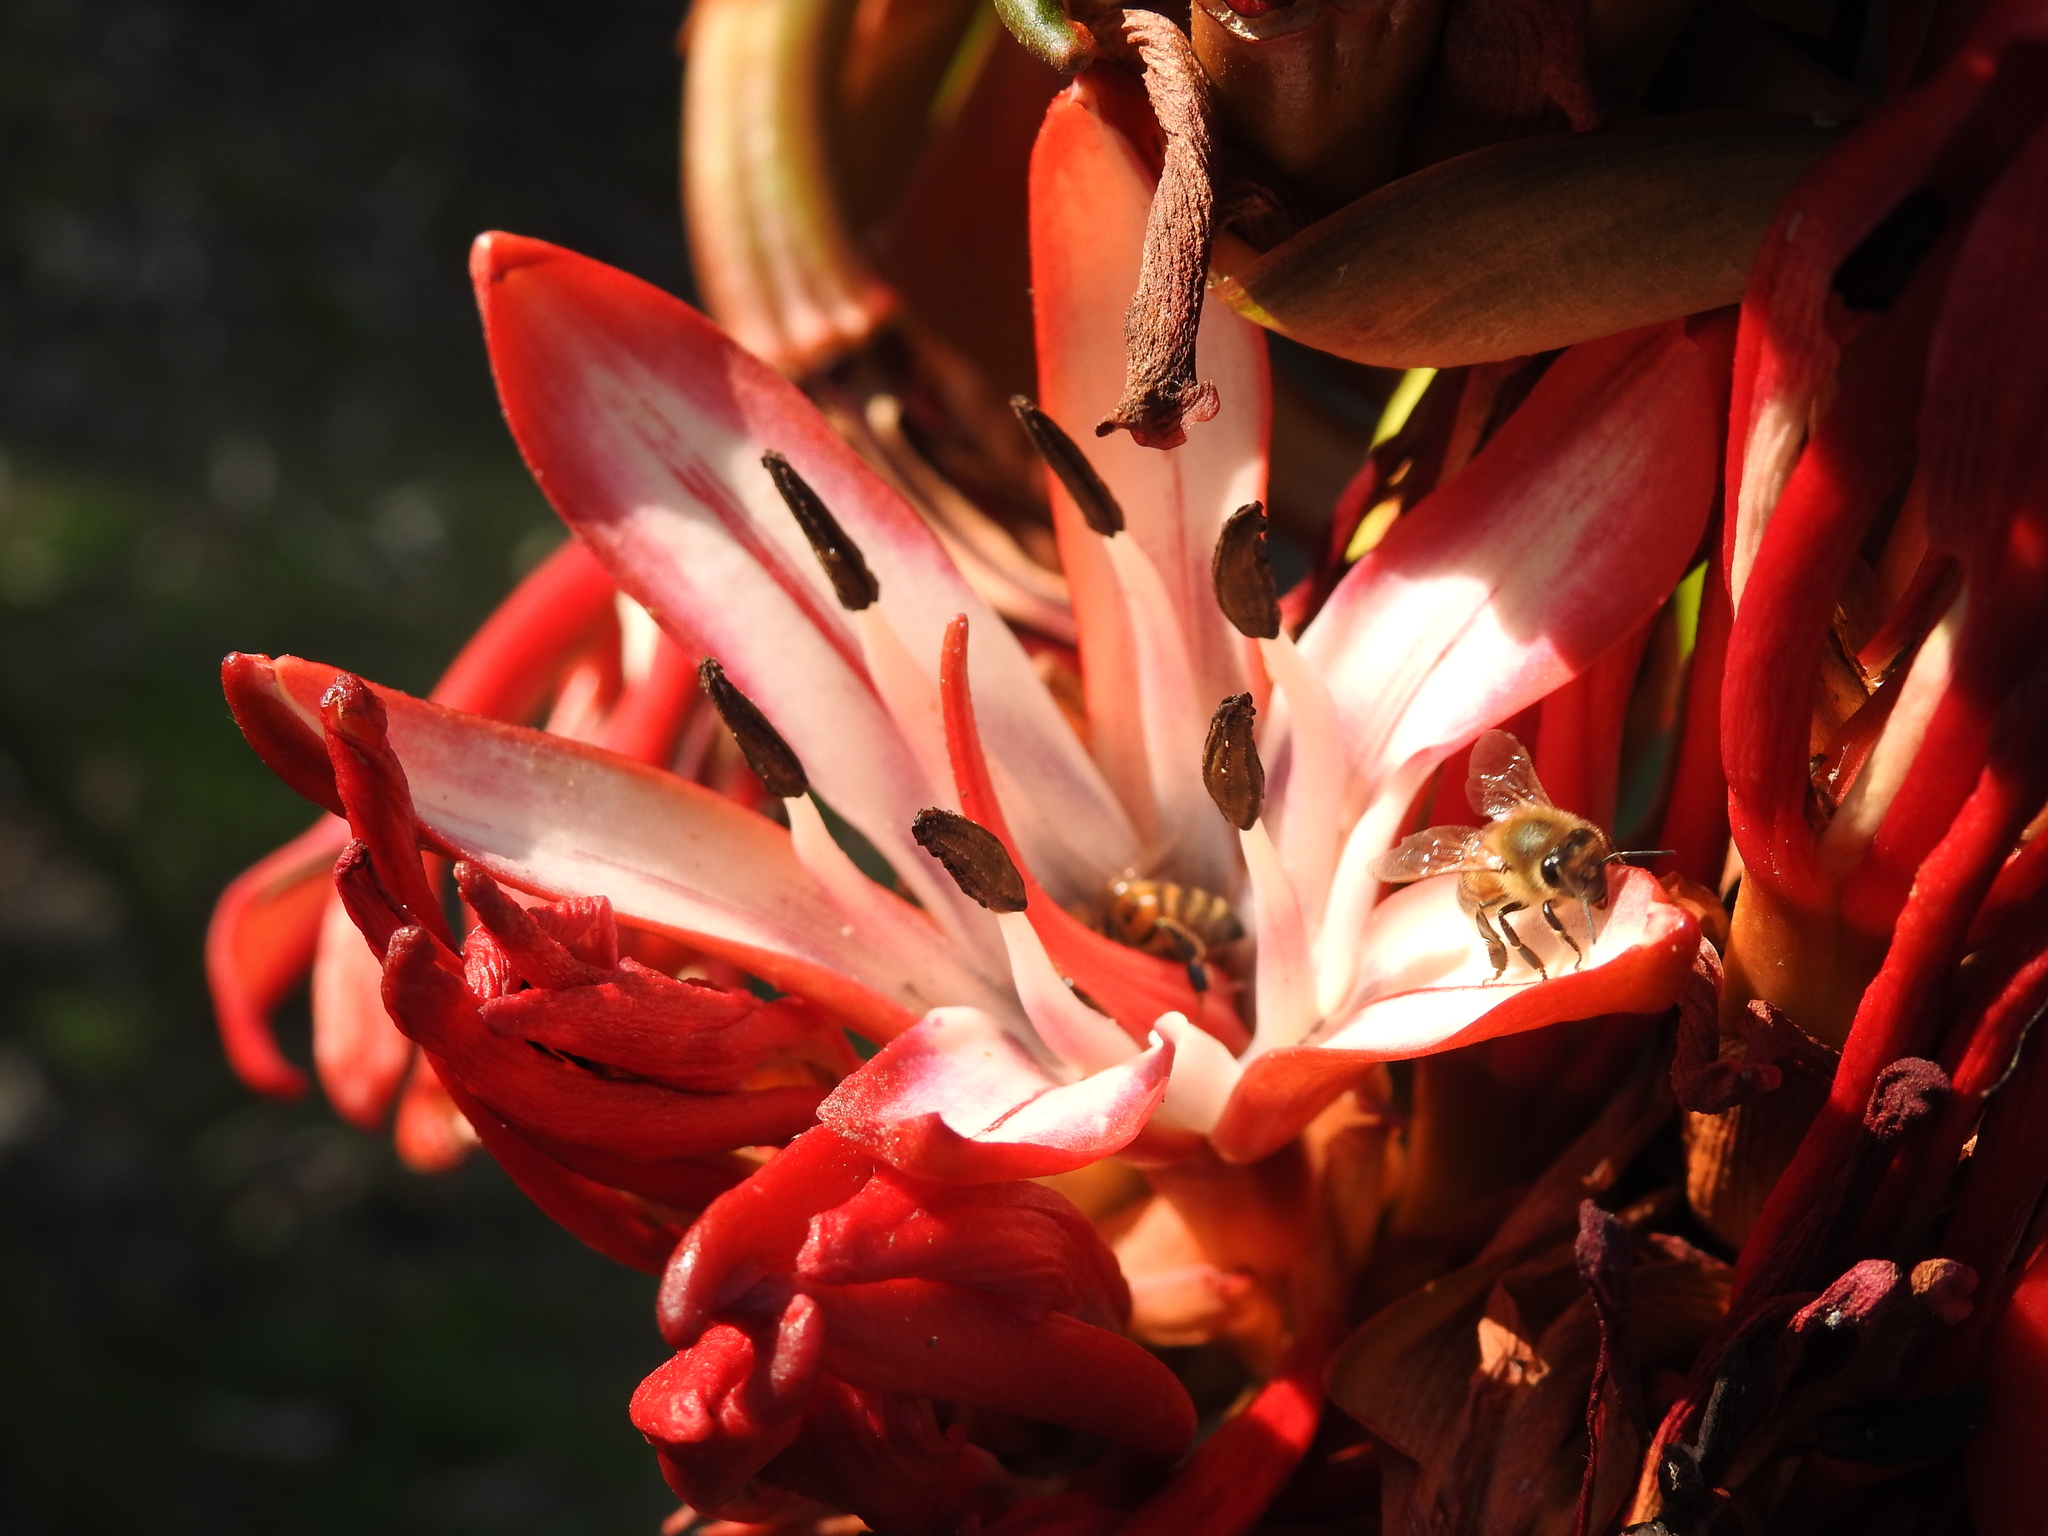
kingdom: Animalia
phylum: Arthropoda
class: Insecta
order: Hymenoptera
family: Apidae
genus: Apis
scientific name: Apis mellifera
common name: Honey bee
